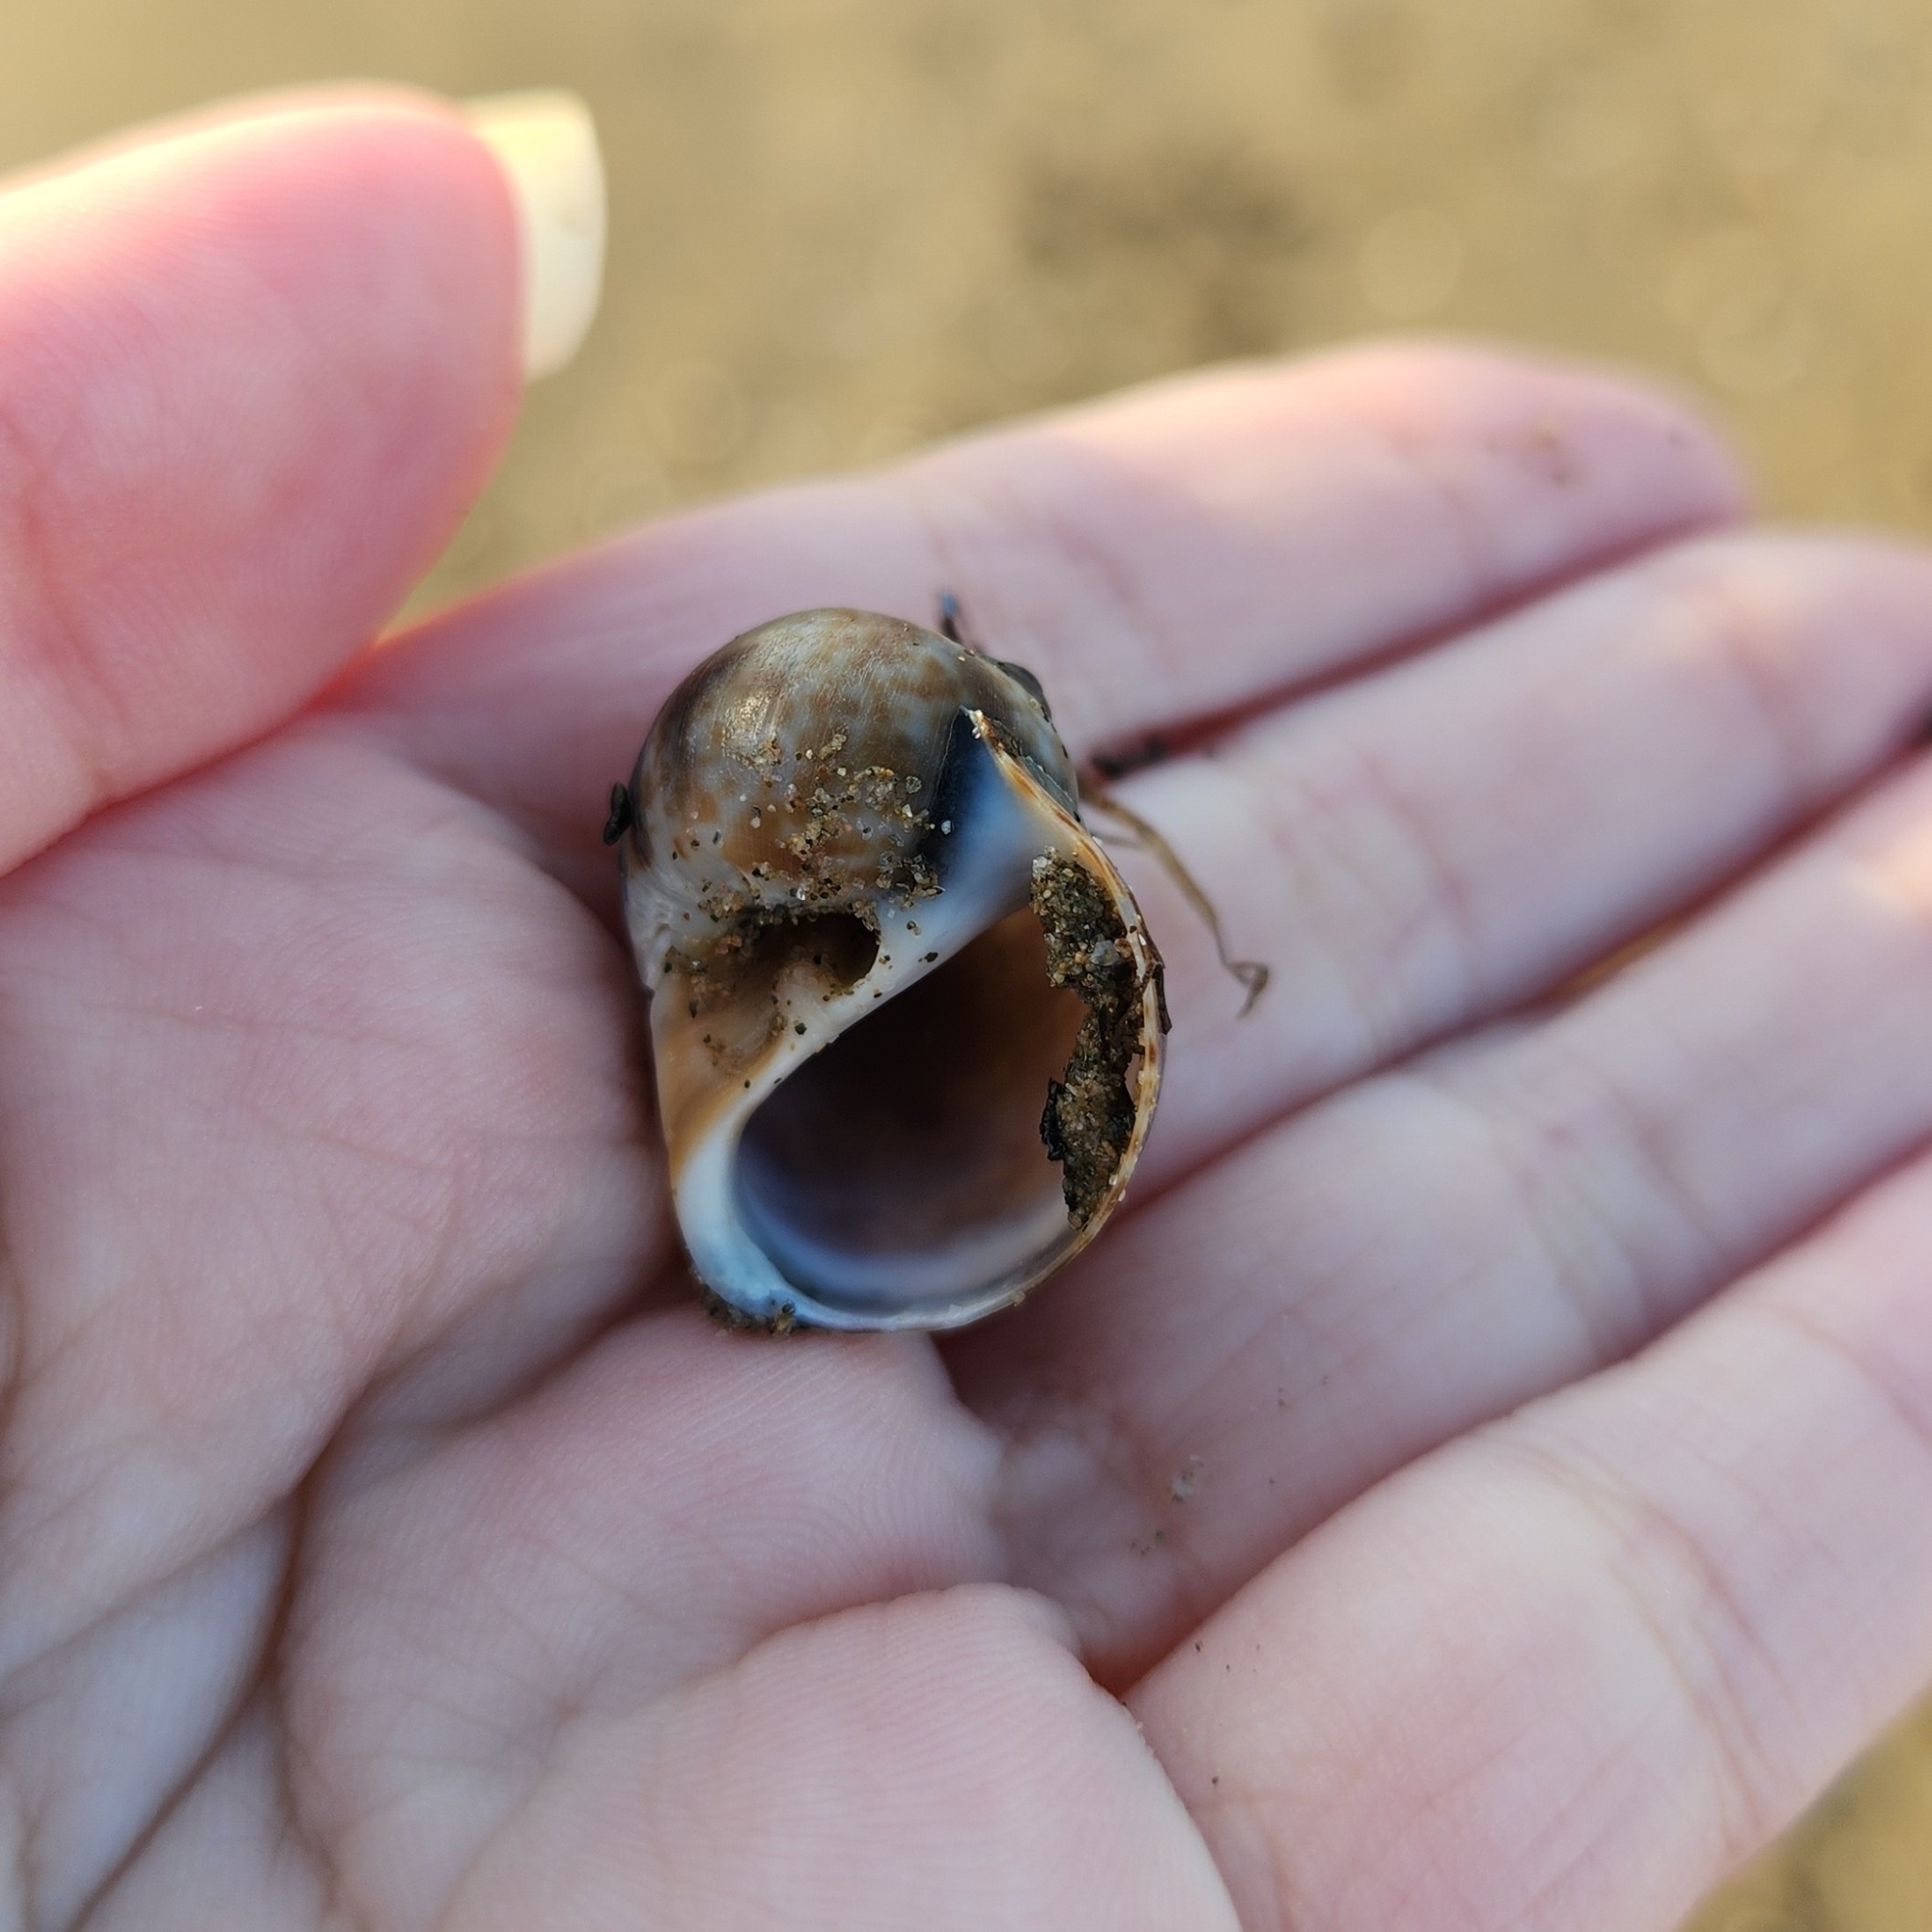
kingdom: Animalia
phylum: Mollusca
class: Gastropoda
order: Littorinimorpha
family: Naticidae
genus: Naticarius
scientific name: Naticarius hebraeus
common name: Hebrew moon shell
